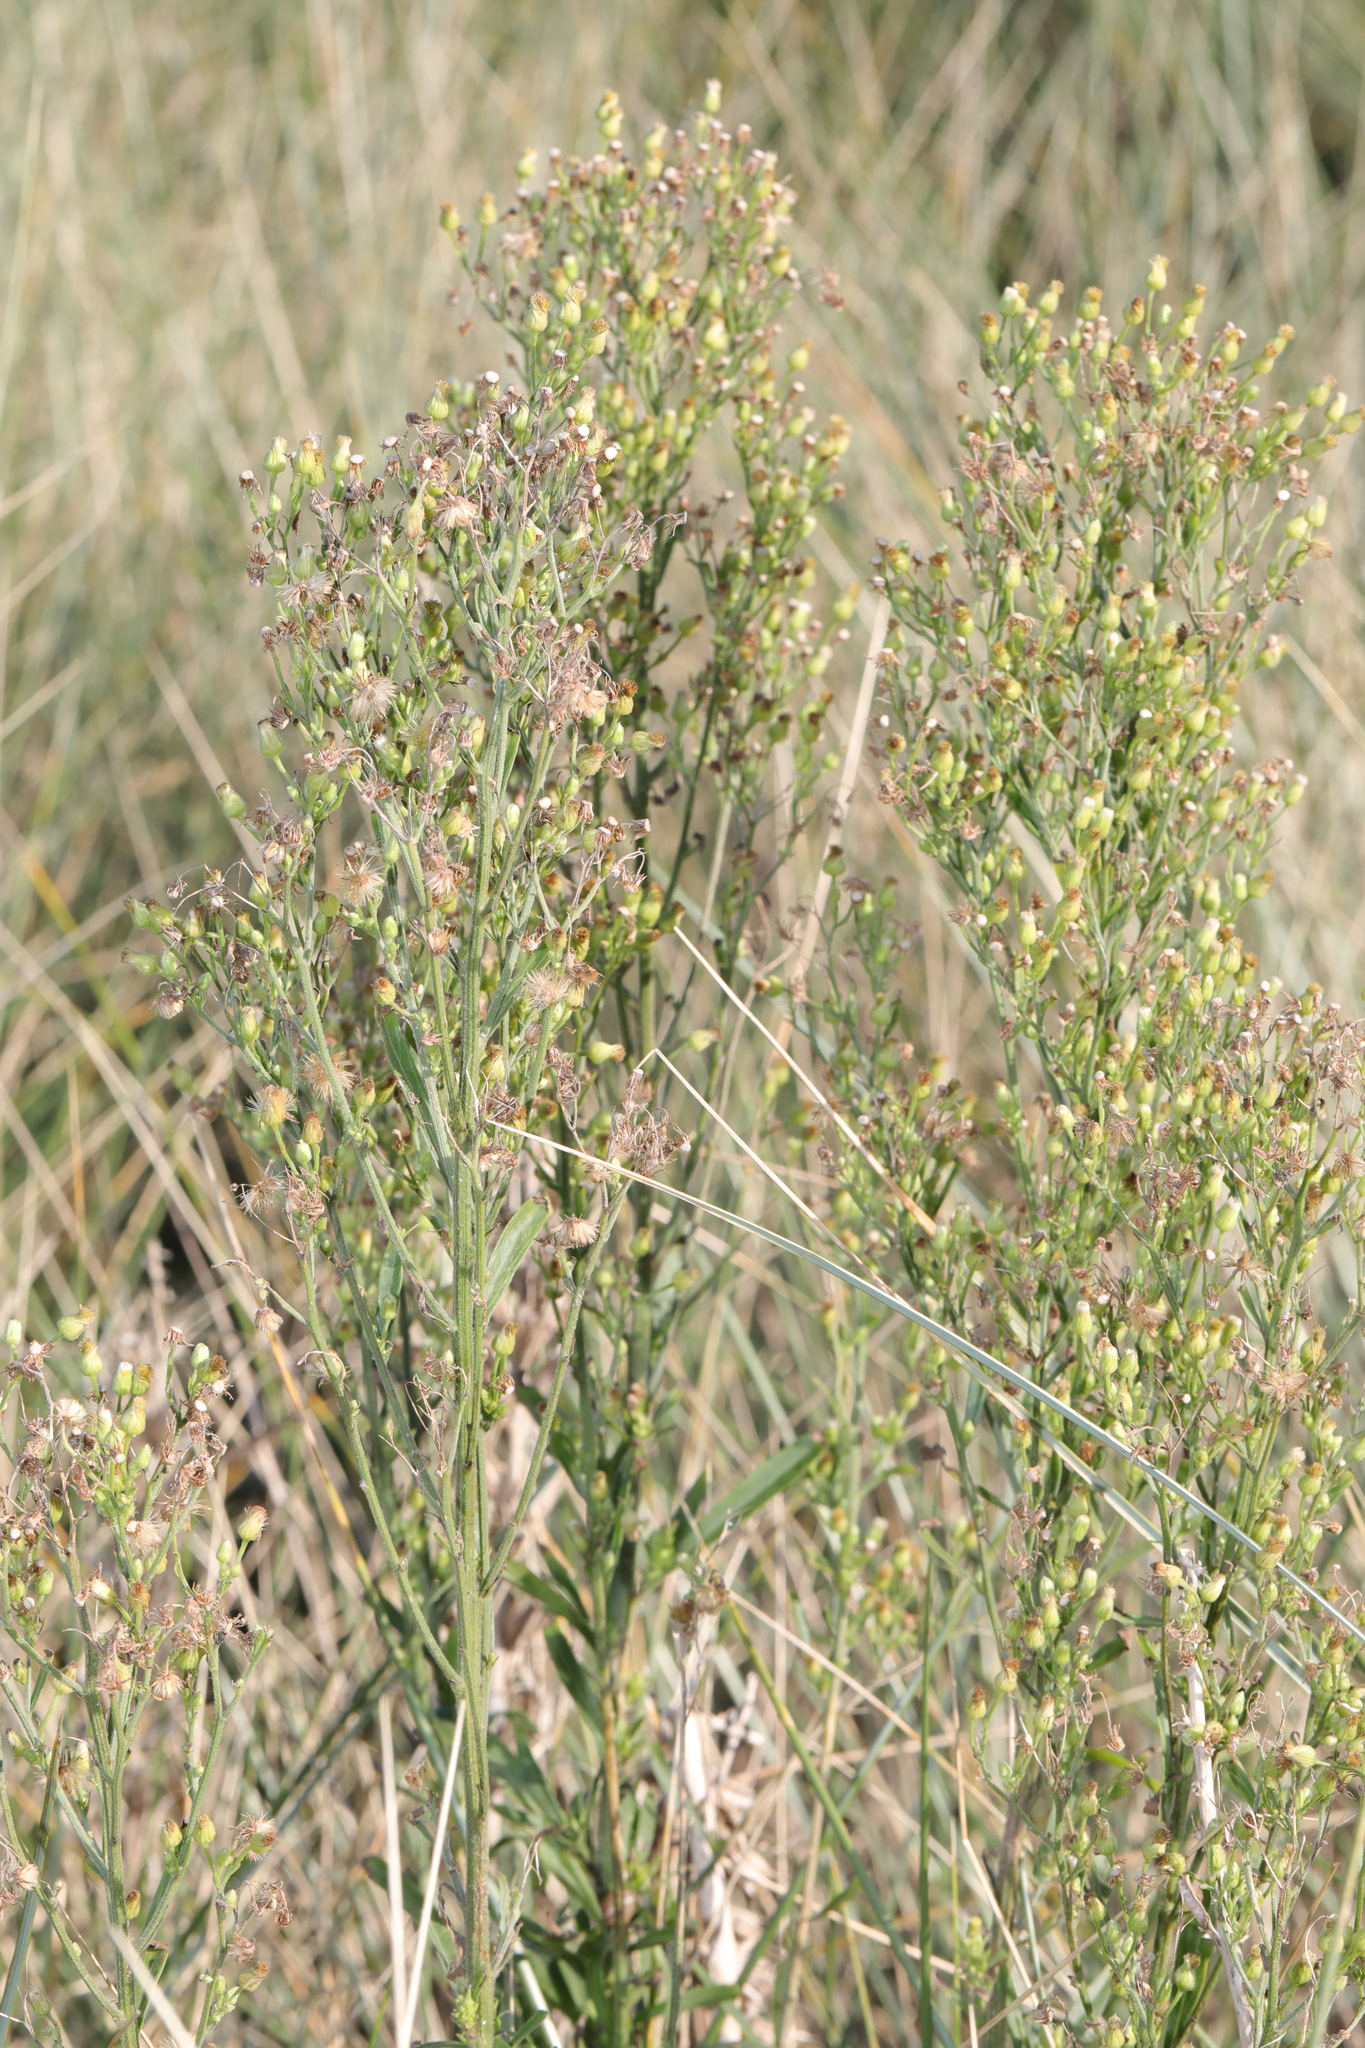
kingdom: Plantae
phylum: Tracheophyta
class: Magnoliopsida
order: Asterales
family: Asteraceae
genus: Erigeron
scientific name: Erigeron sumatrensis
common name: Daisy
